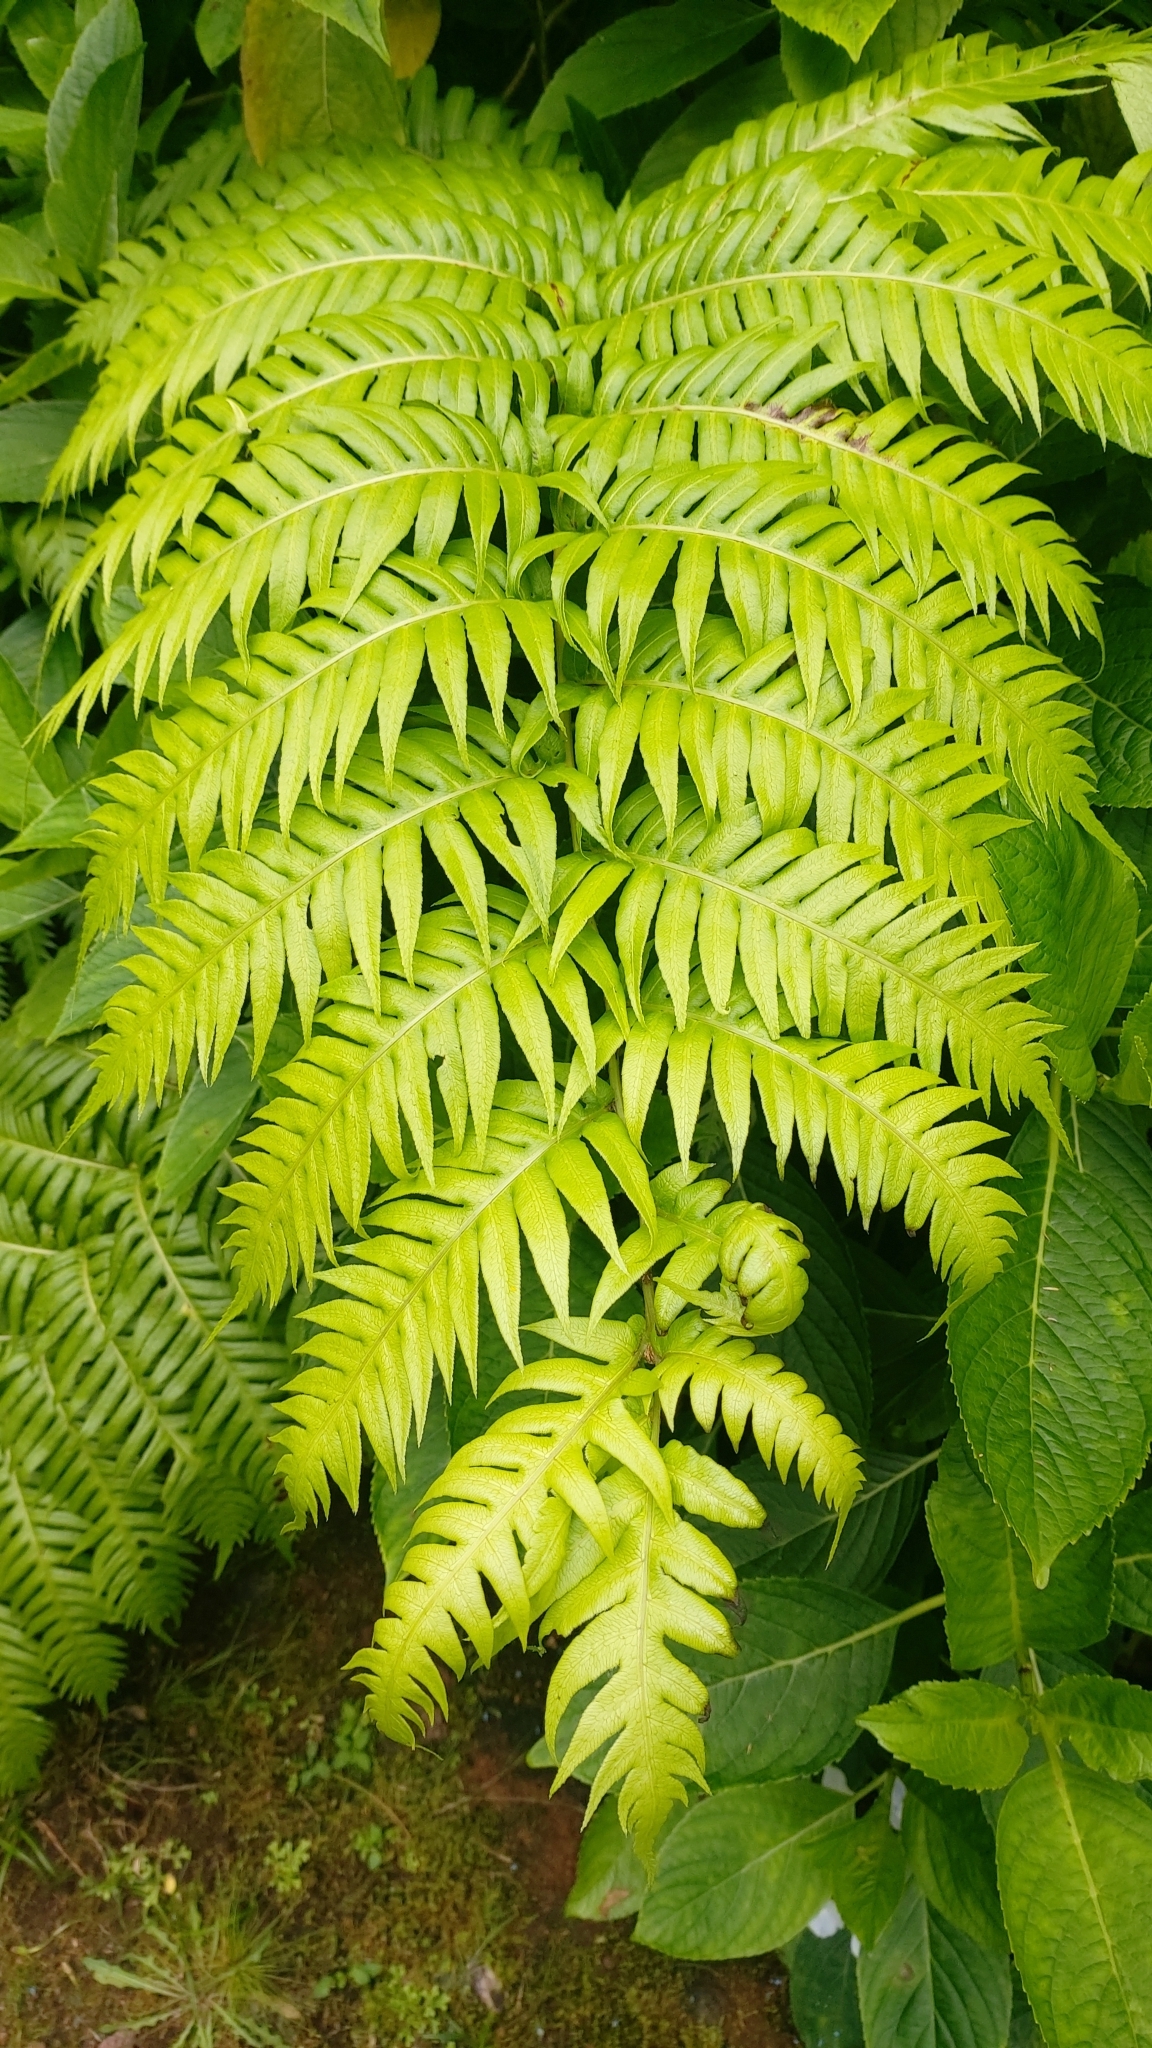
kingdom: Plantae
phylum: Tracheophyta
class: Polypodiopsida
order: Polypodiales
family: Blechnaceae
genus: Woodwardia
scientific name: Woodwardia radicans
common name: Rooting chainfern
